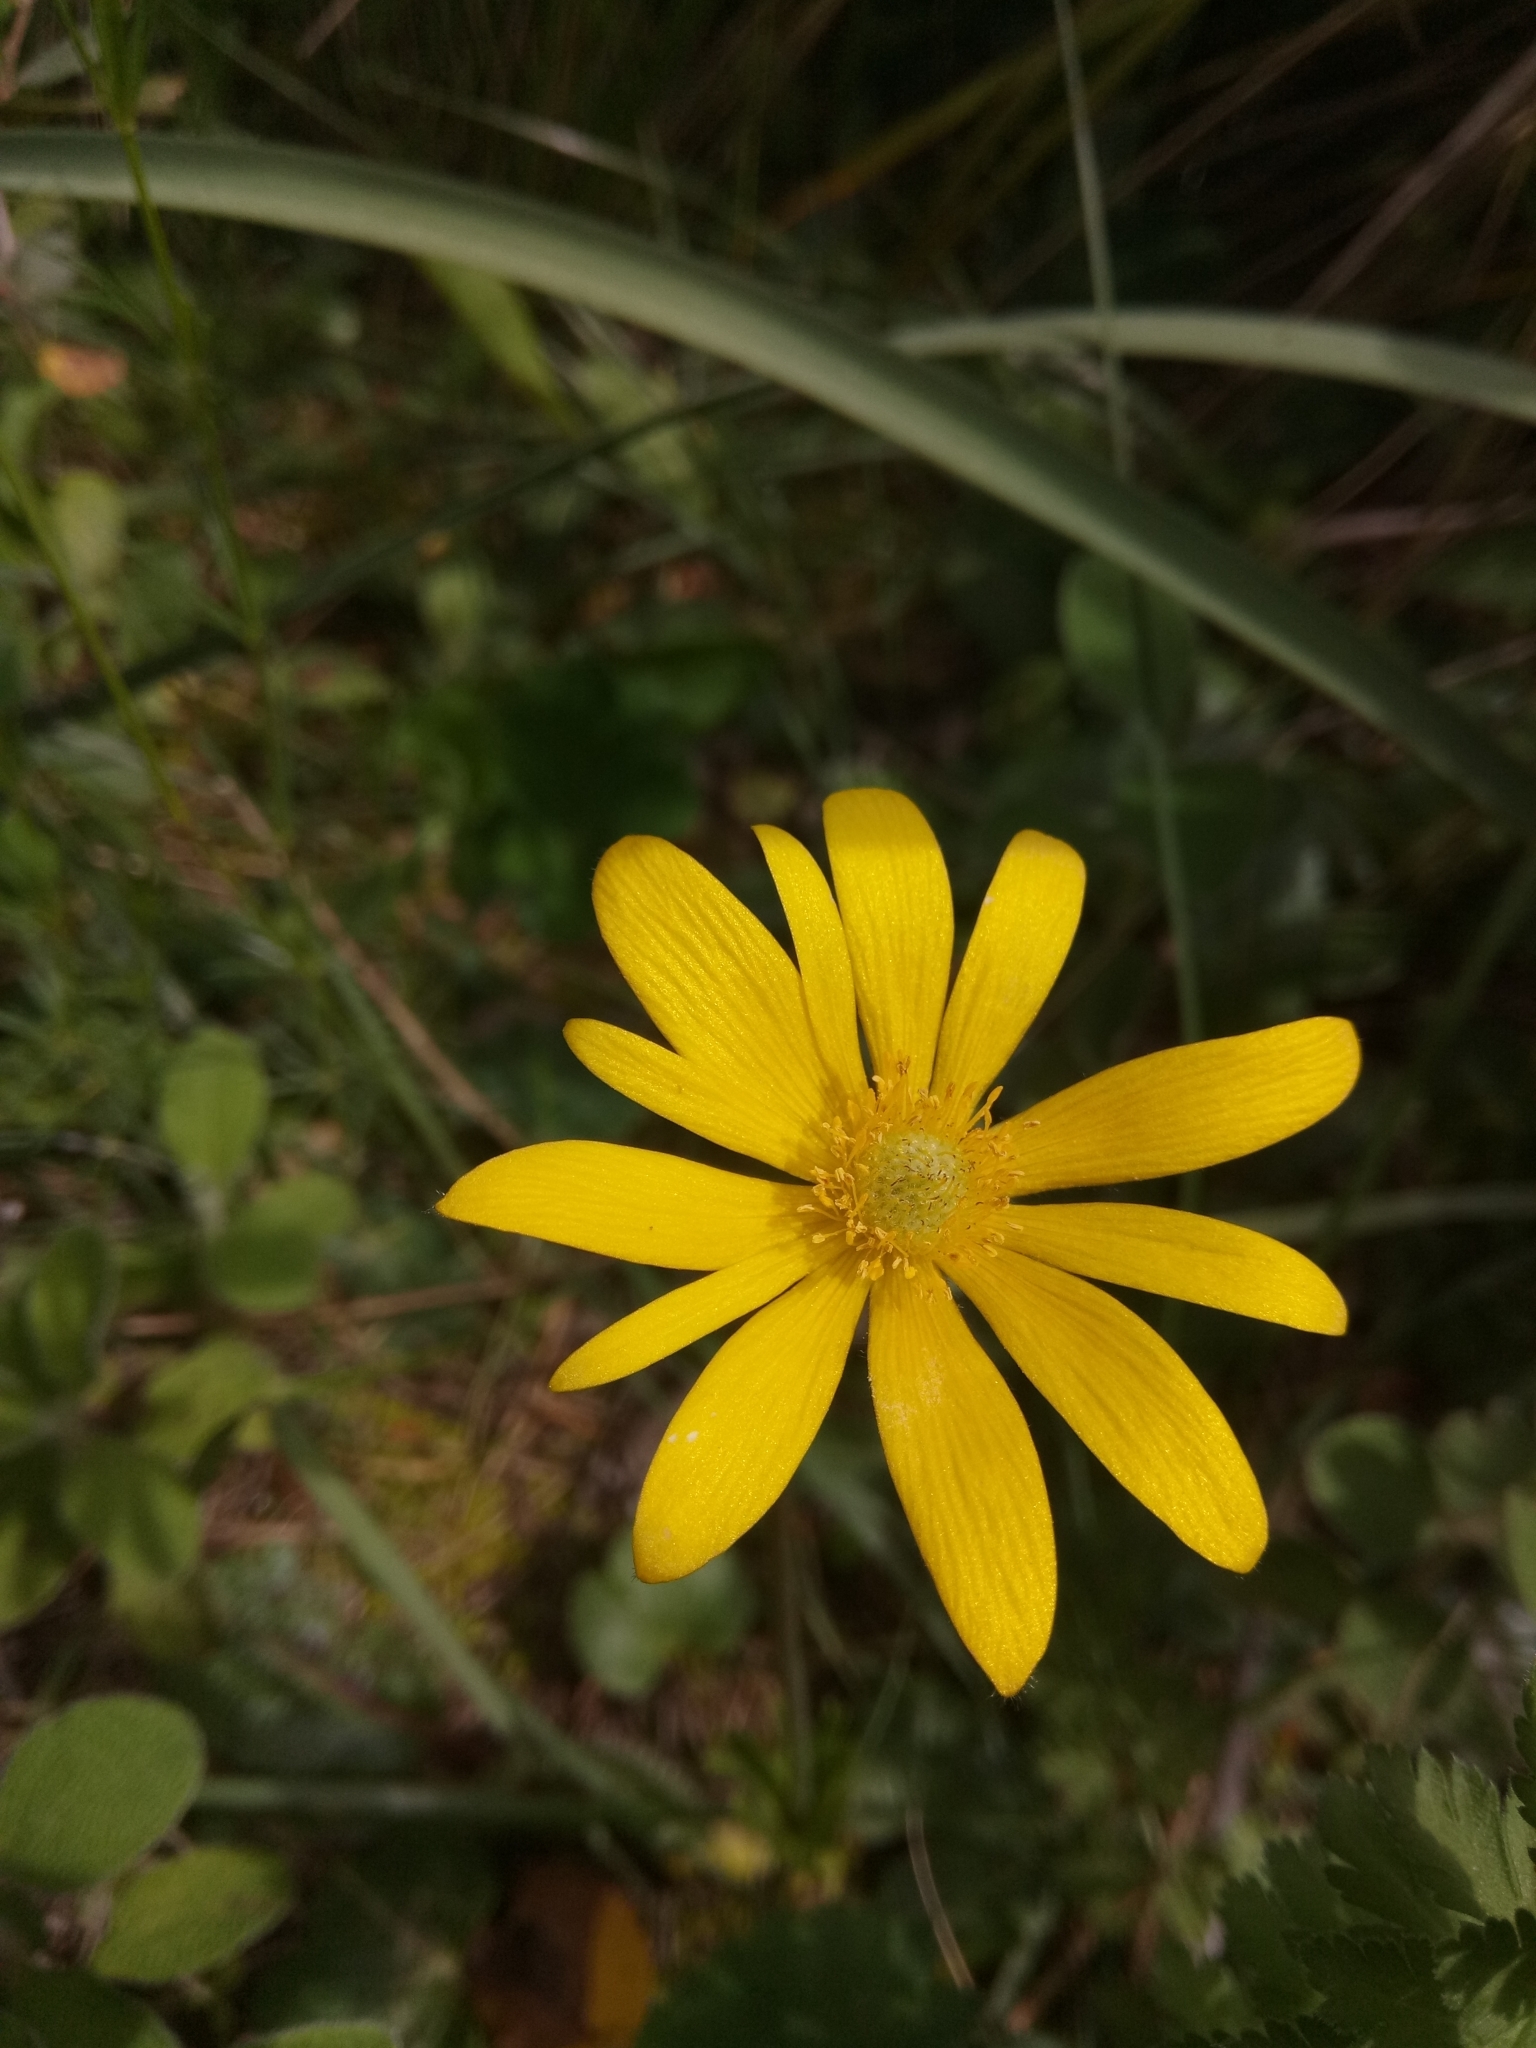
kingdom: Plantae
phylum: Tracheophyta
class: Magnoliopsida
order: Ranunculales
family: Ranunculaceae
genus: Anemone
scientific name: Anemone palmata
